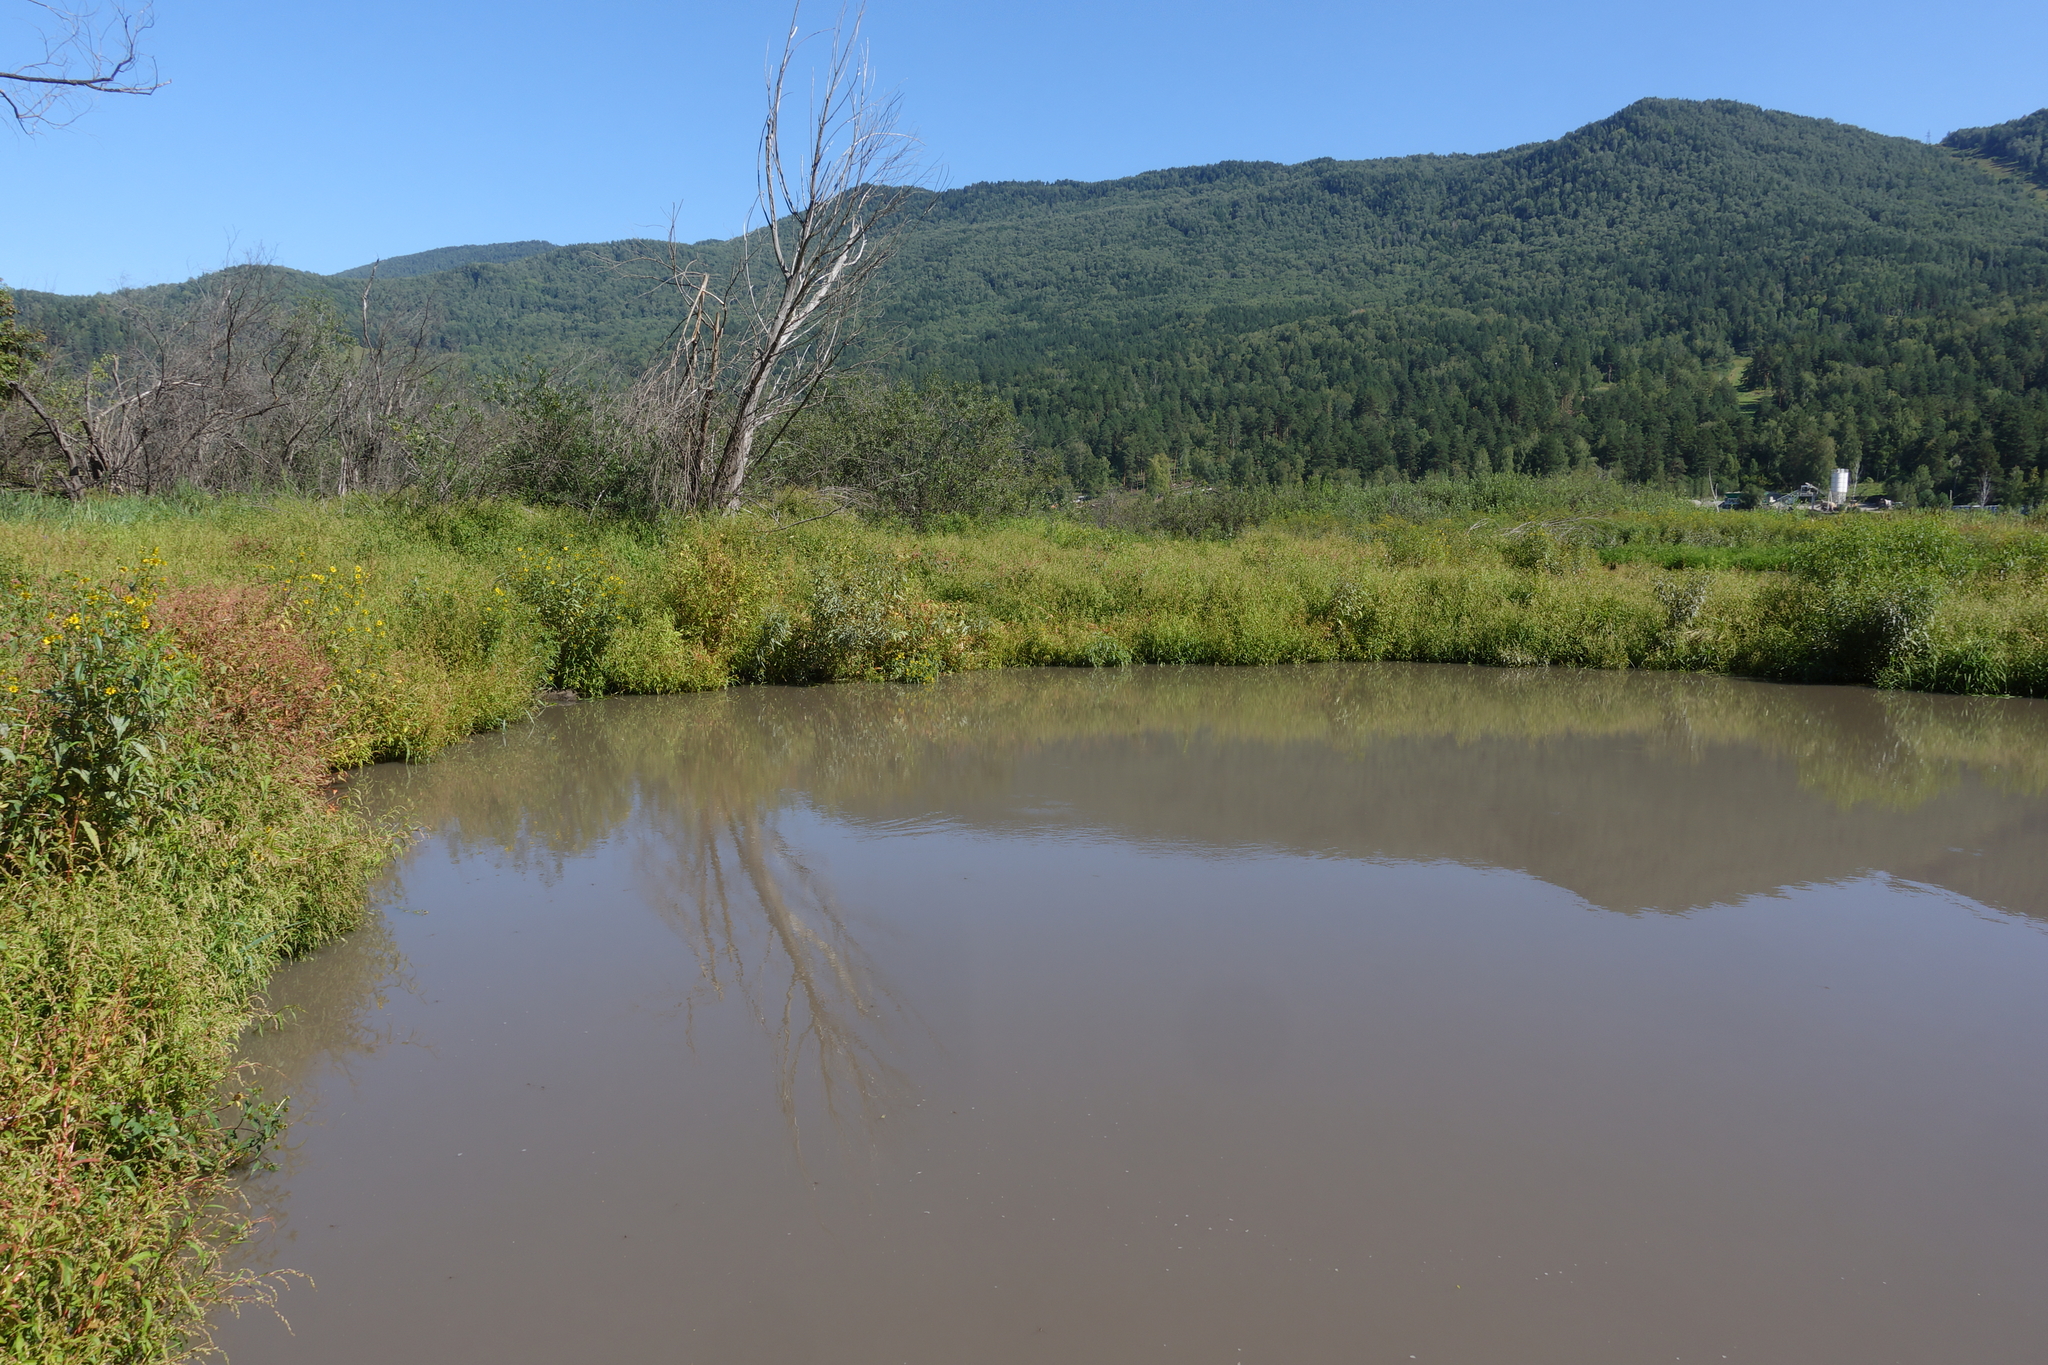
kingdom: Plantae
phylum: Tracheophyta
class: Magnoliopsida
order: Caryophyllales
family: Polygonaceae
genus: Persicaria
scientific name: Persicaria hydropiper
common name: Water-pepper
